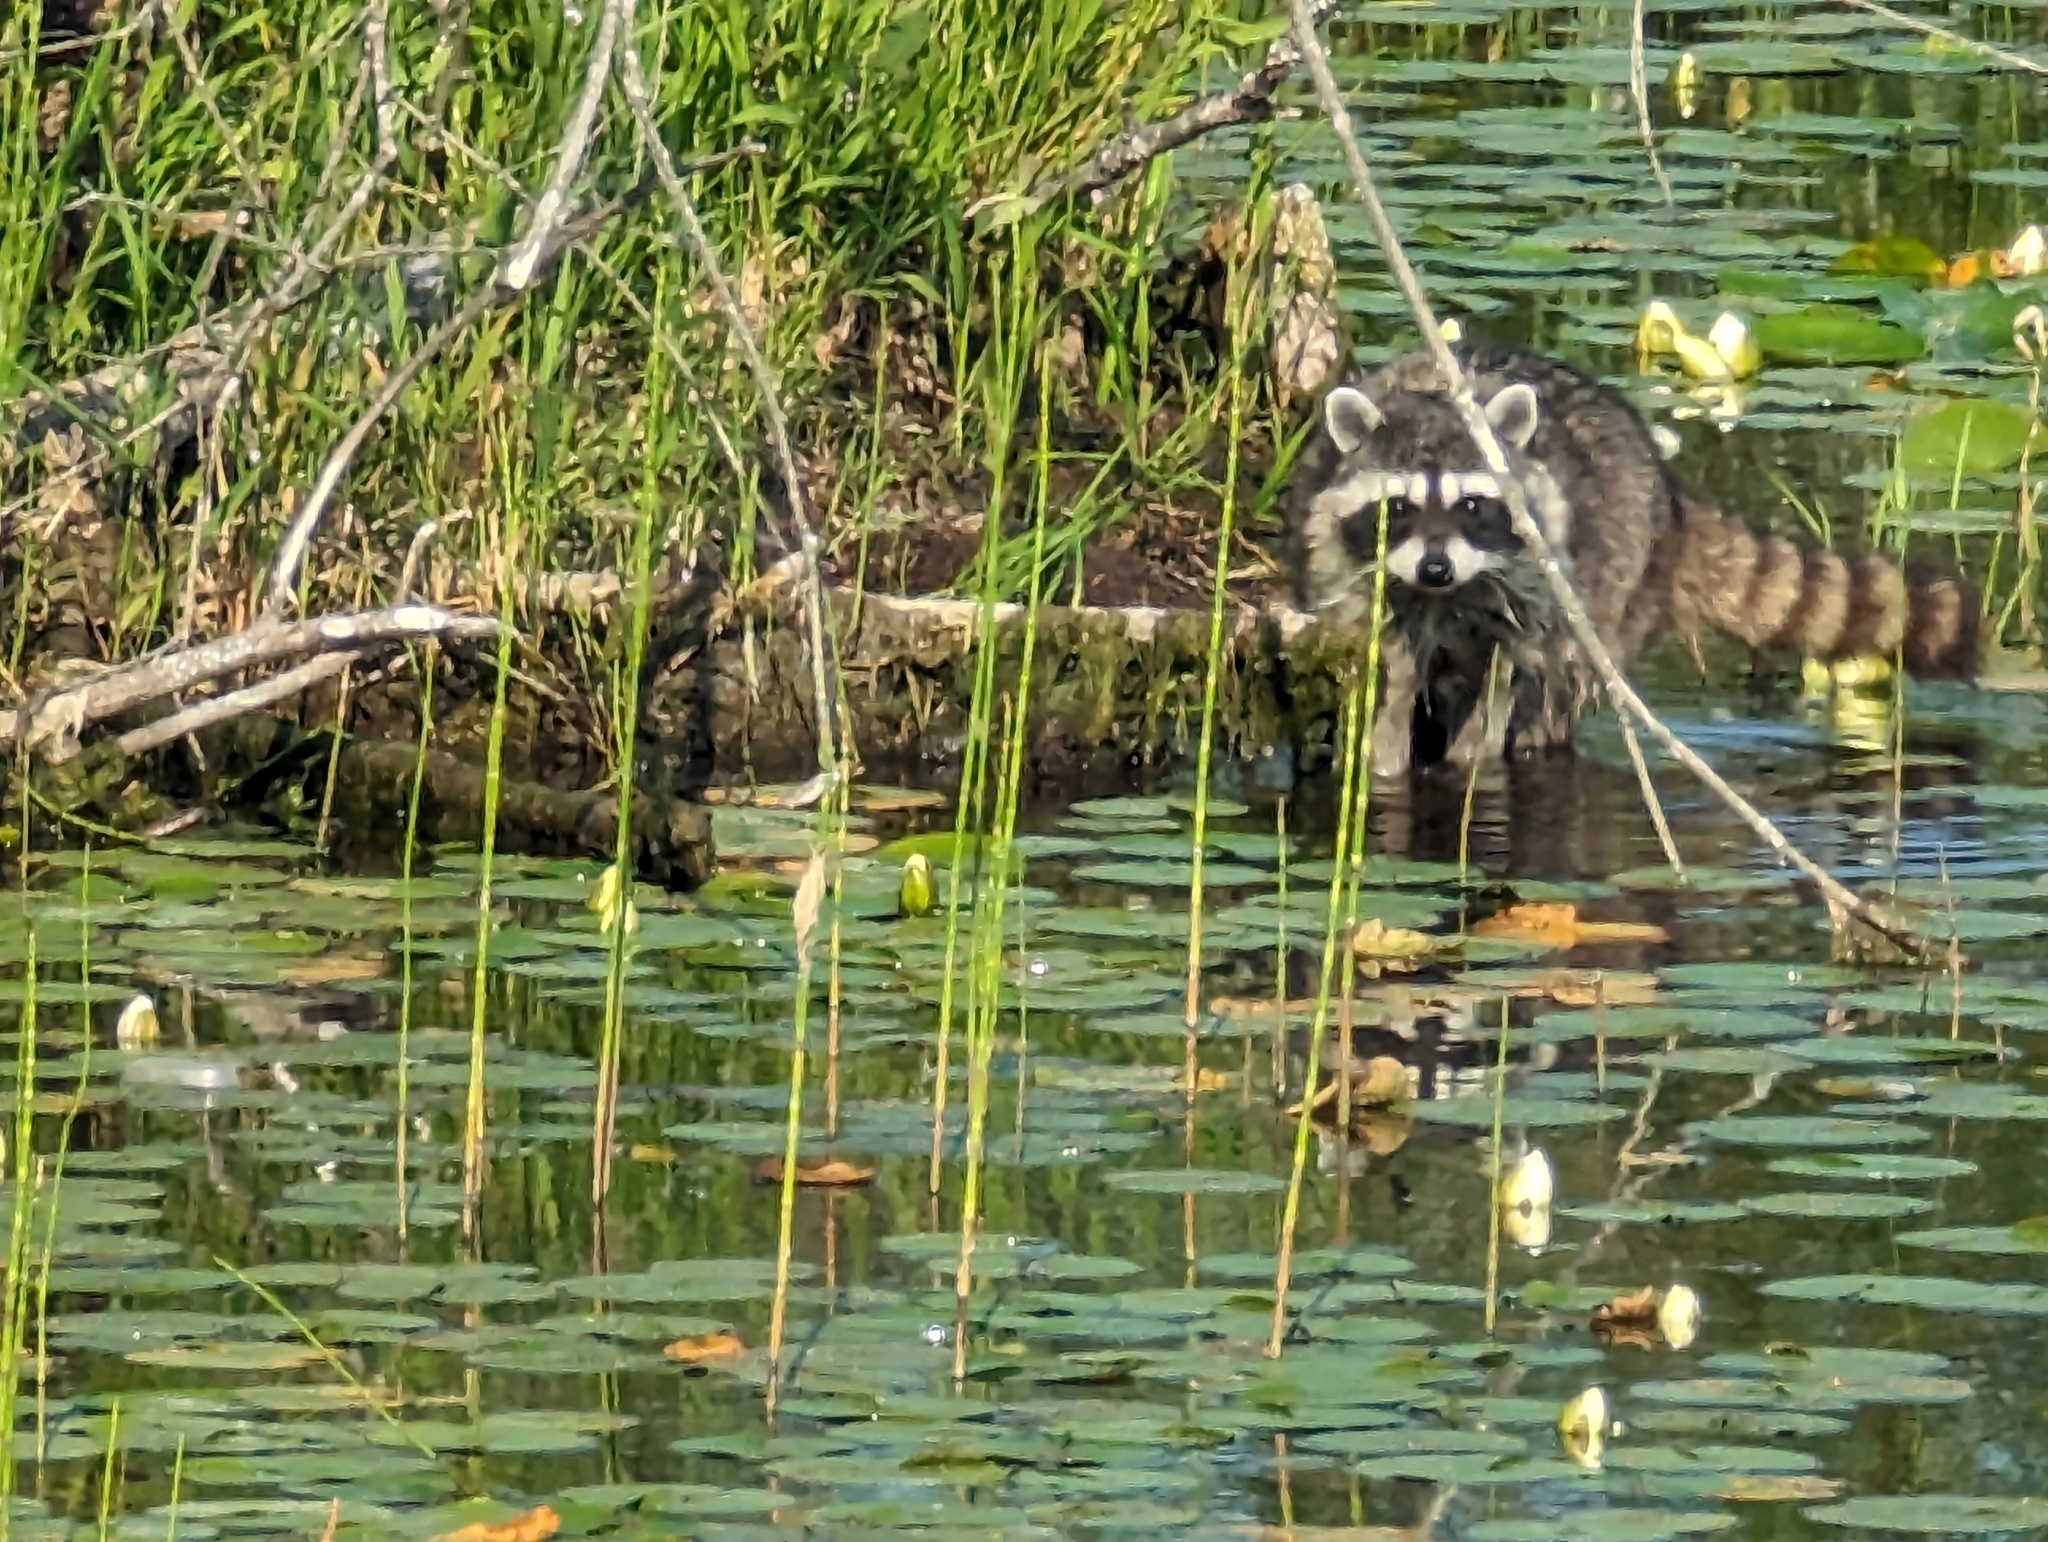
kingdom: Animalia
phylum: Chordata
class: Mammalia
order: Carnivora
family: Procyonidae
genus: Procyon
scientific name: Procyon lotor
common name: Raccoon
